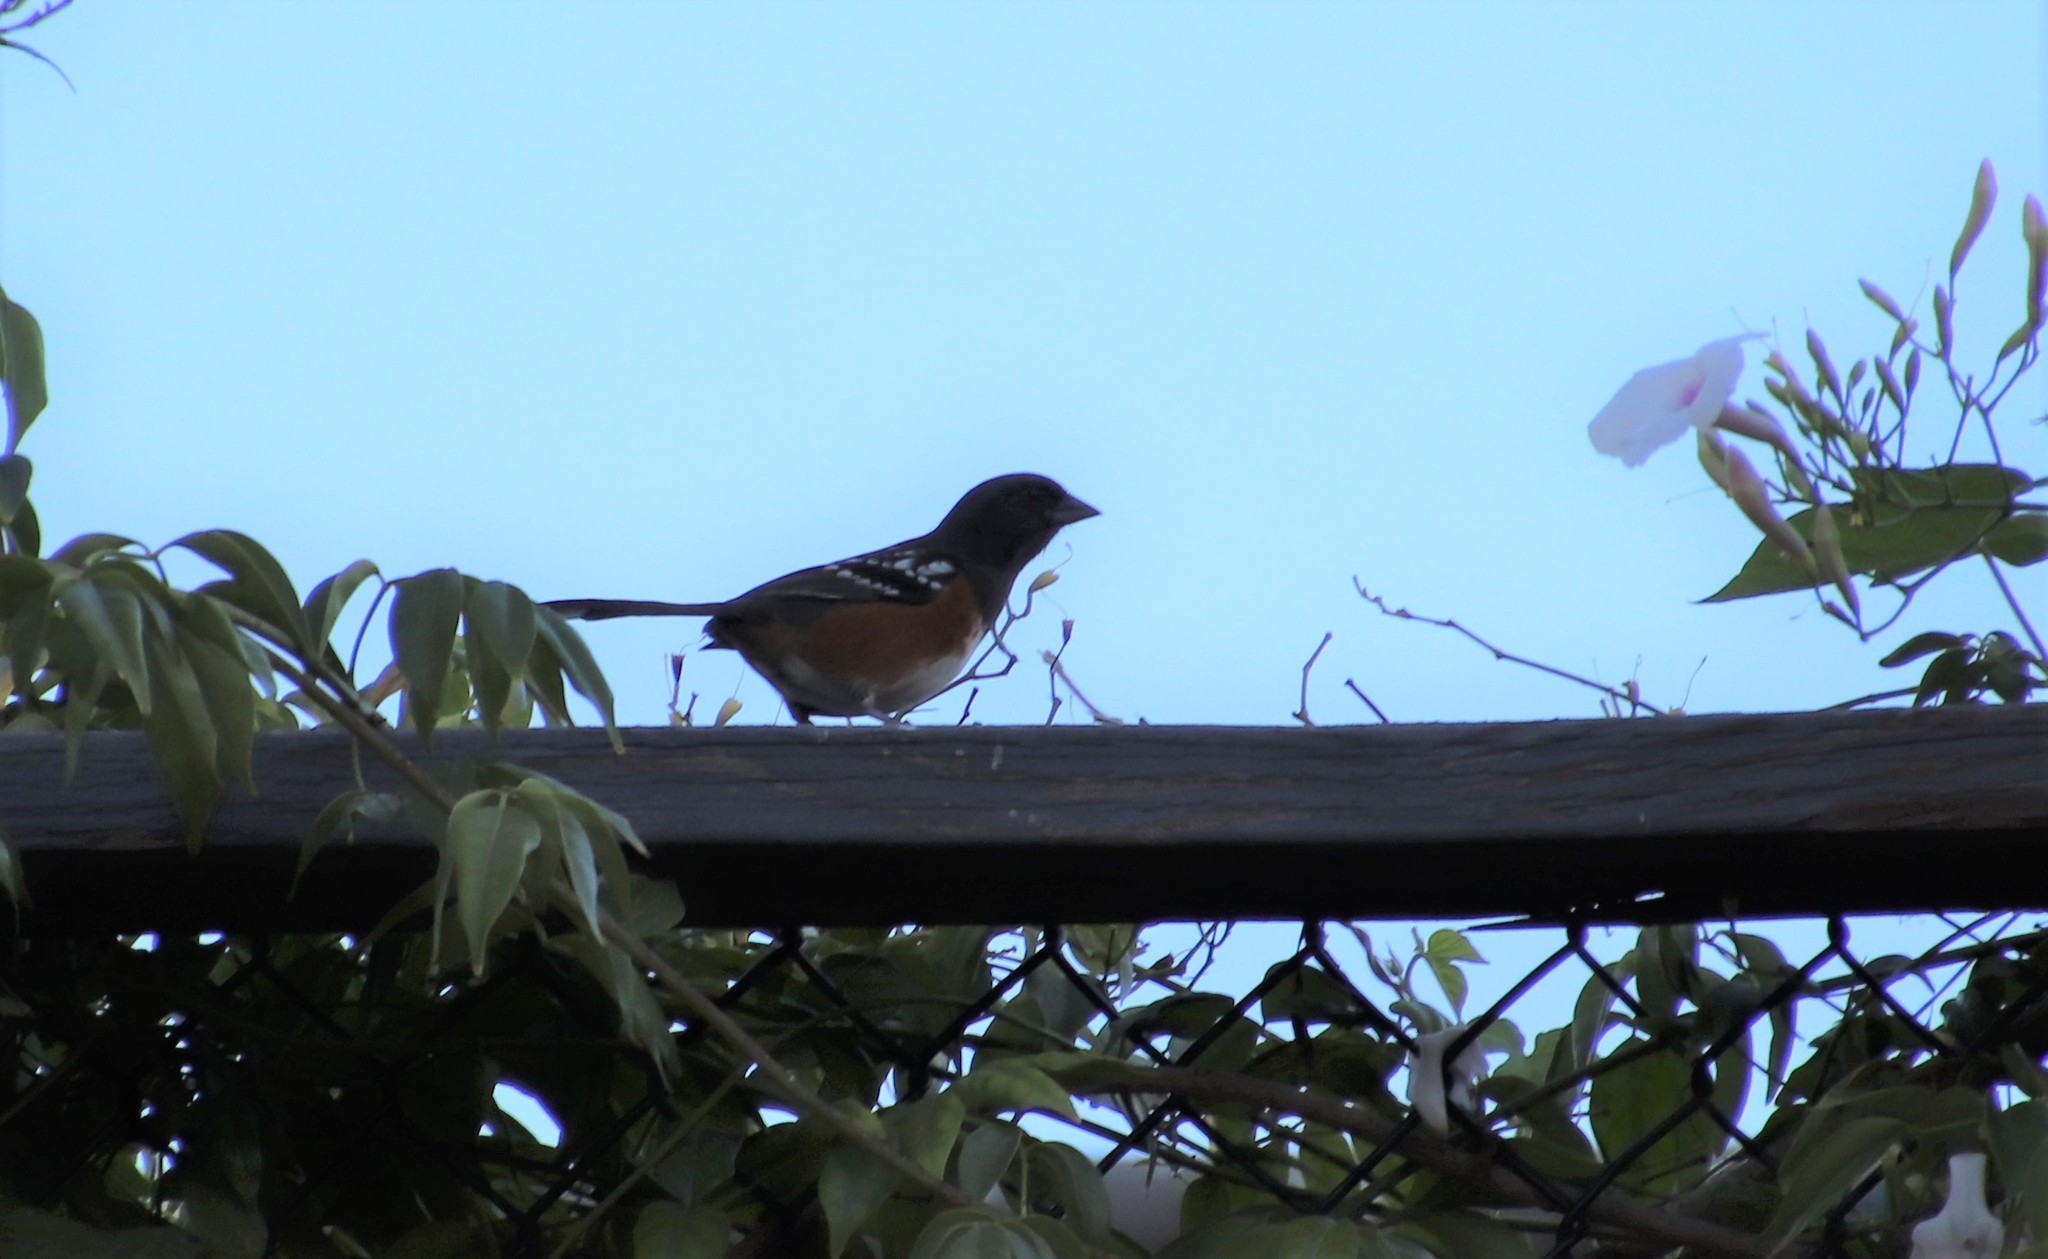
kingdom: Animalia
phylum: Chordata
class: Aves
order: Passeriformes
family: Passerellidae
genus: Pipilo
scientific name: Pipilo maculatus
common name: Spotted towhee
